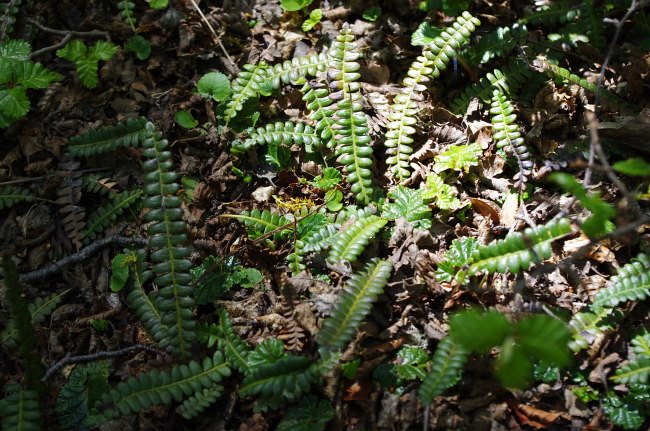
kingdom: Plantae
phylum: Tracheophyta
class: Polypodiopsida
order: Polypodiales
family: Blechnaceae
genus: Austroblechnum
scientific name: Austroblechnum penna-marina
